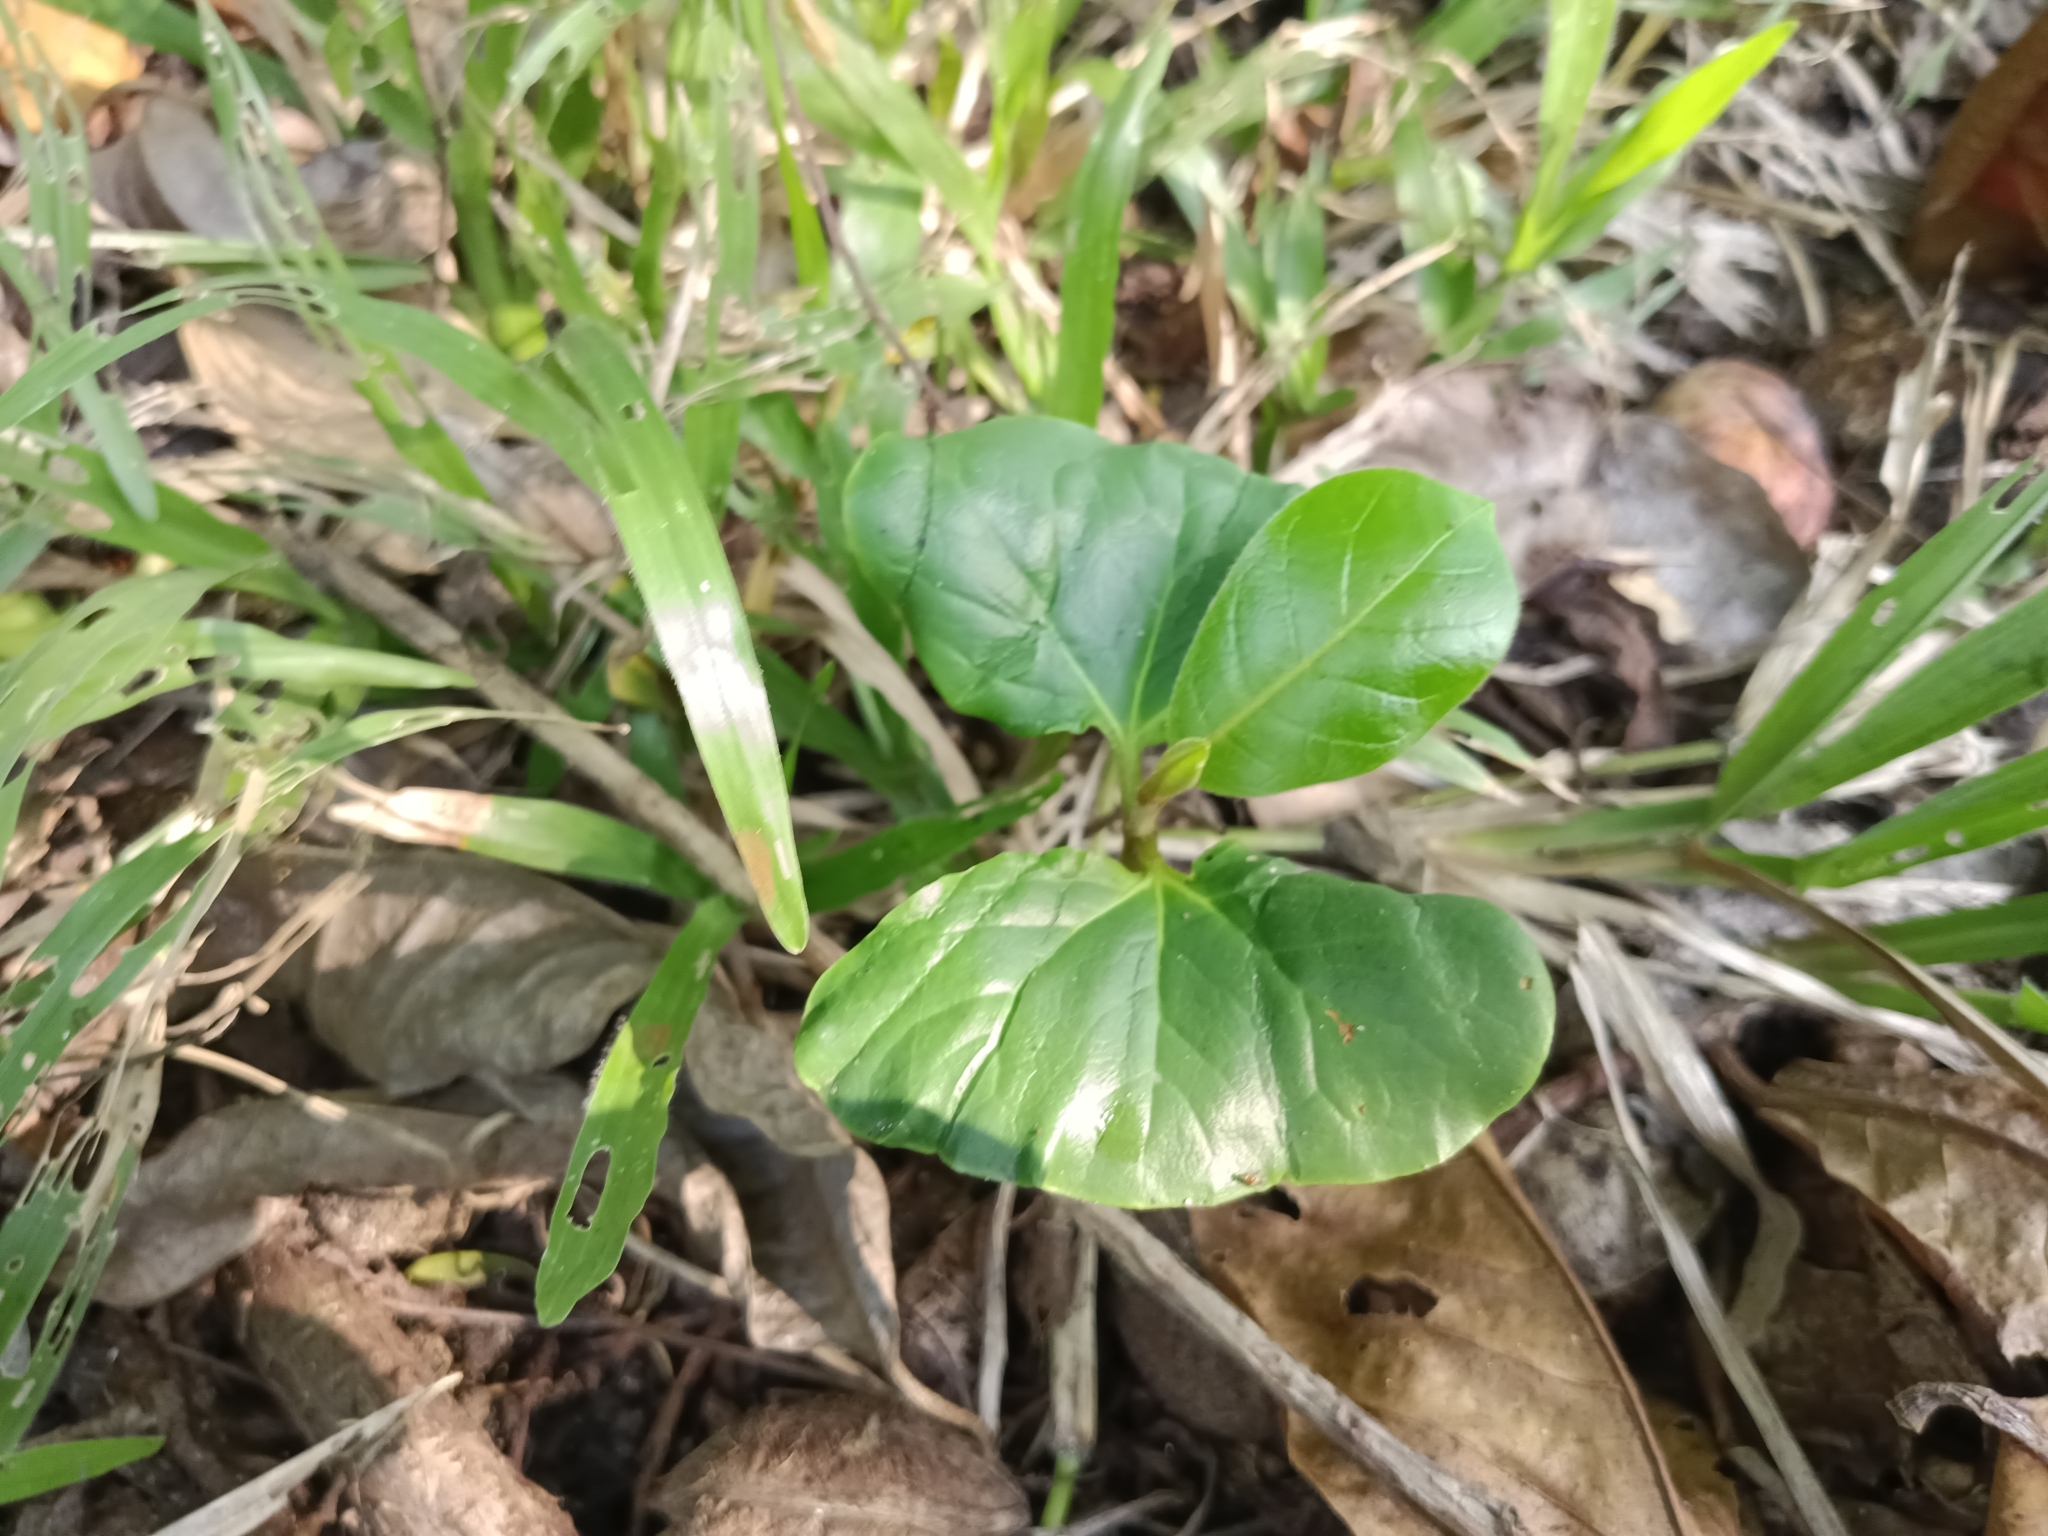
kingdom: Plantae
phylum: Tracheophyta
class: Magnoliopsida
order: Myrtales
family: Combretaceae
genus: Terminalia
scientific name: Terminalia catappa
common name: Tropical almond
